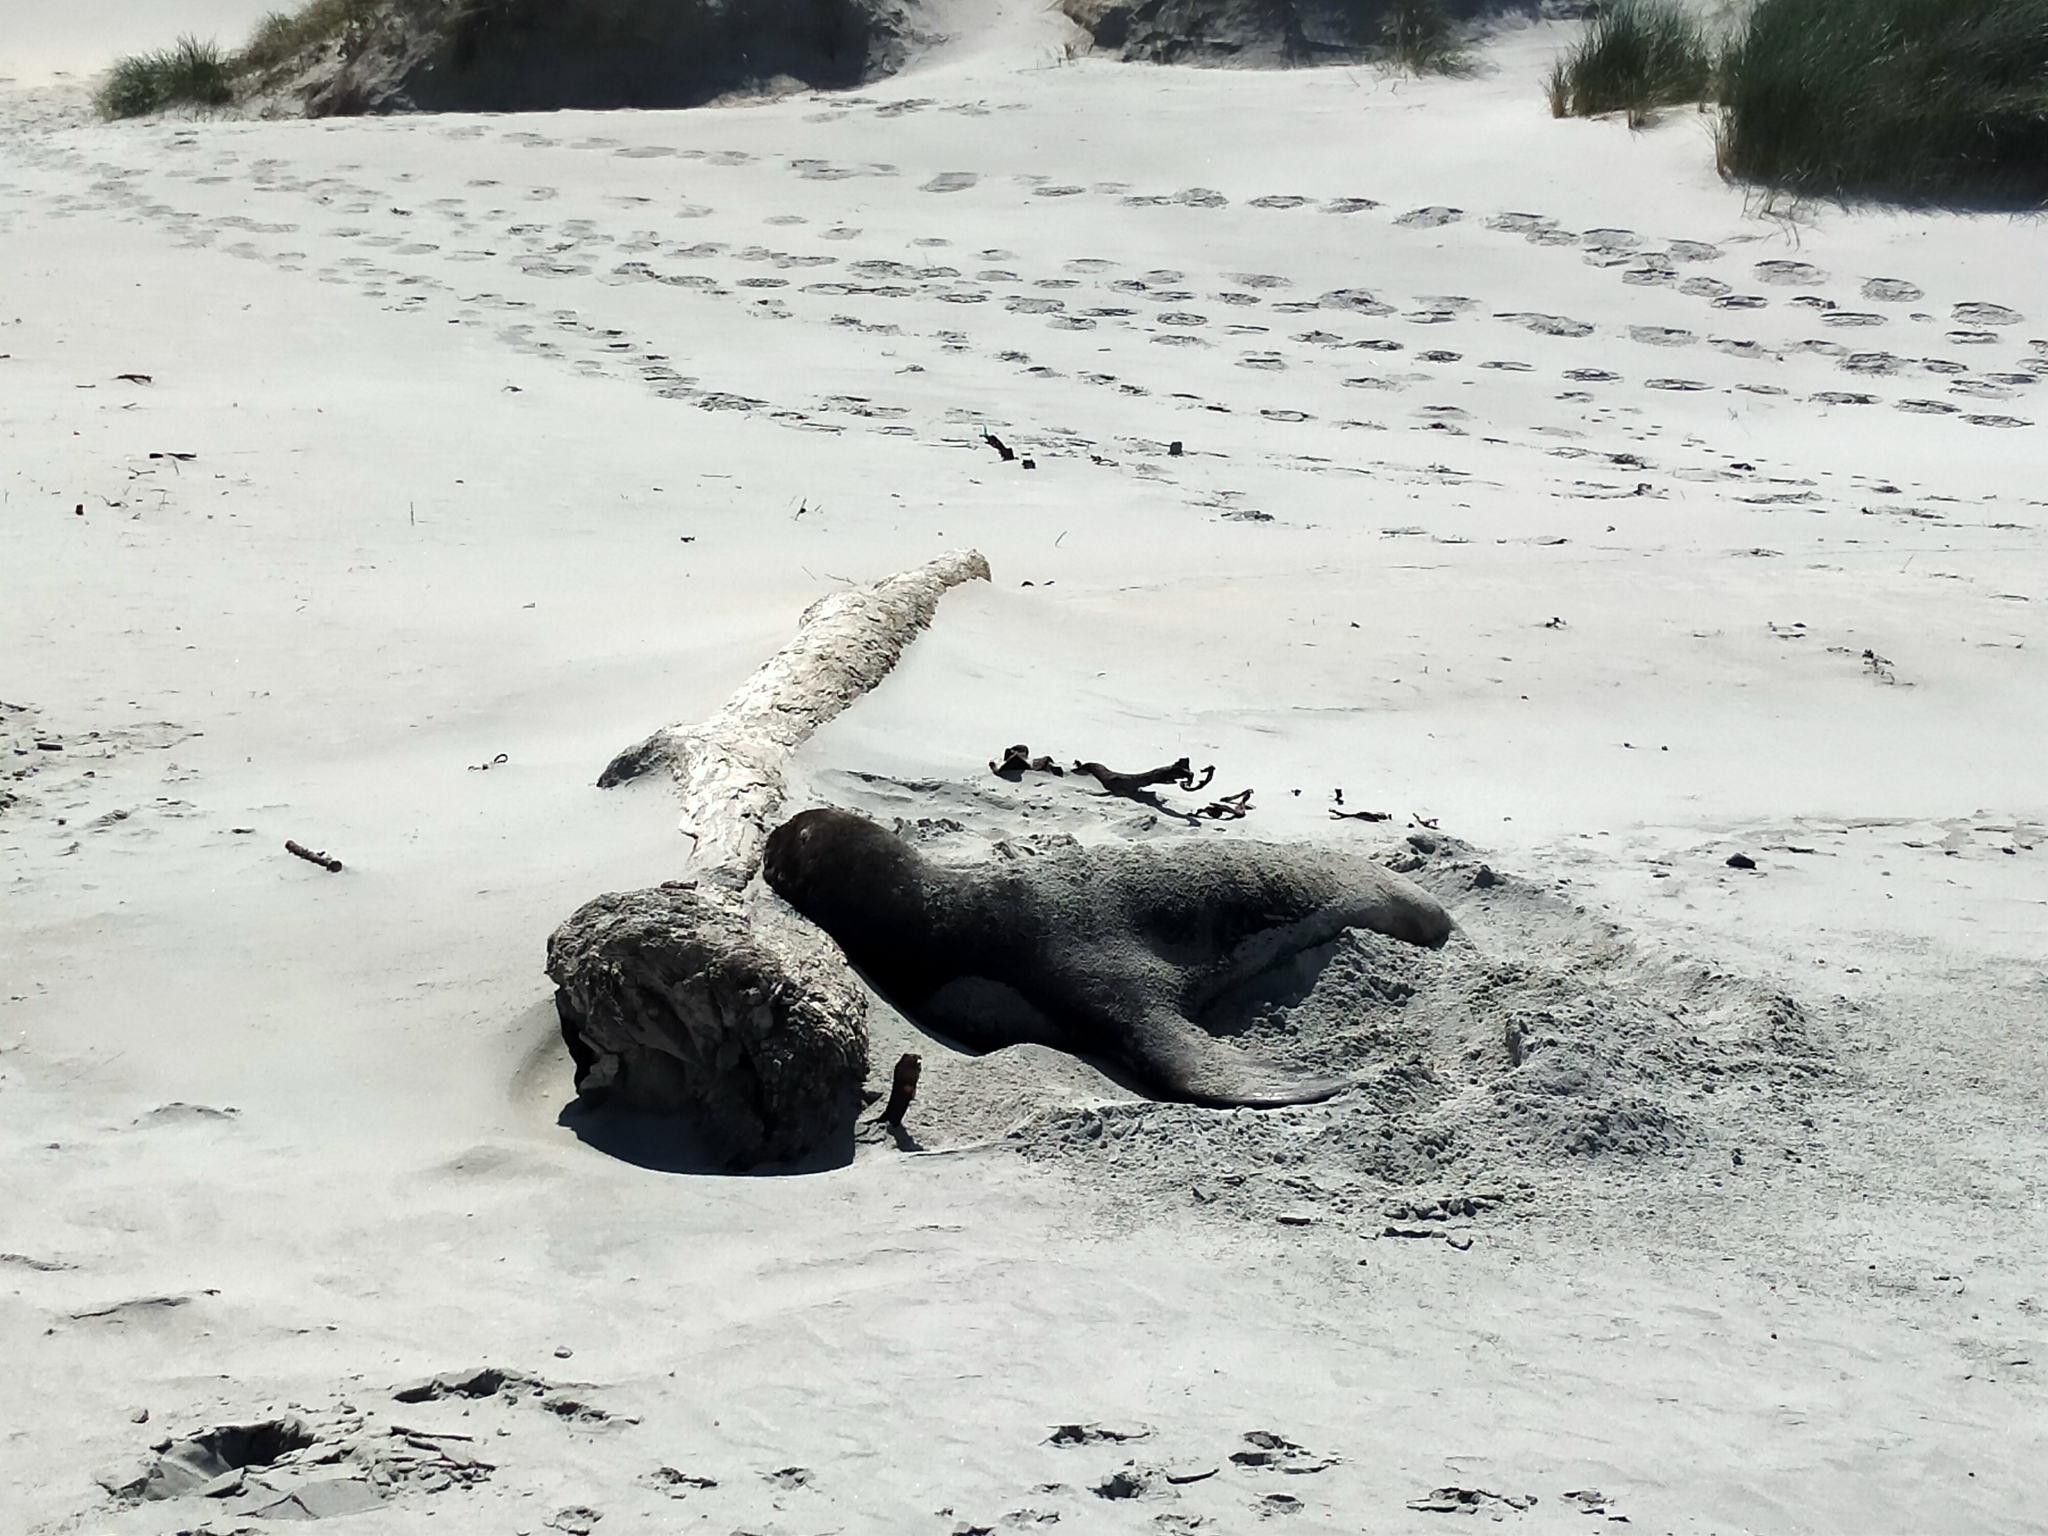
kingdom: Animalia
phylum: Chordata
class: Mammalia
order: Carnivora
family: Otariidae
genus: Phocarctos
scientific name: Phocarctos hookeri
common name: New zealand sea lion
